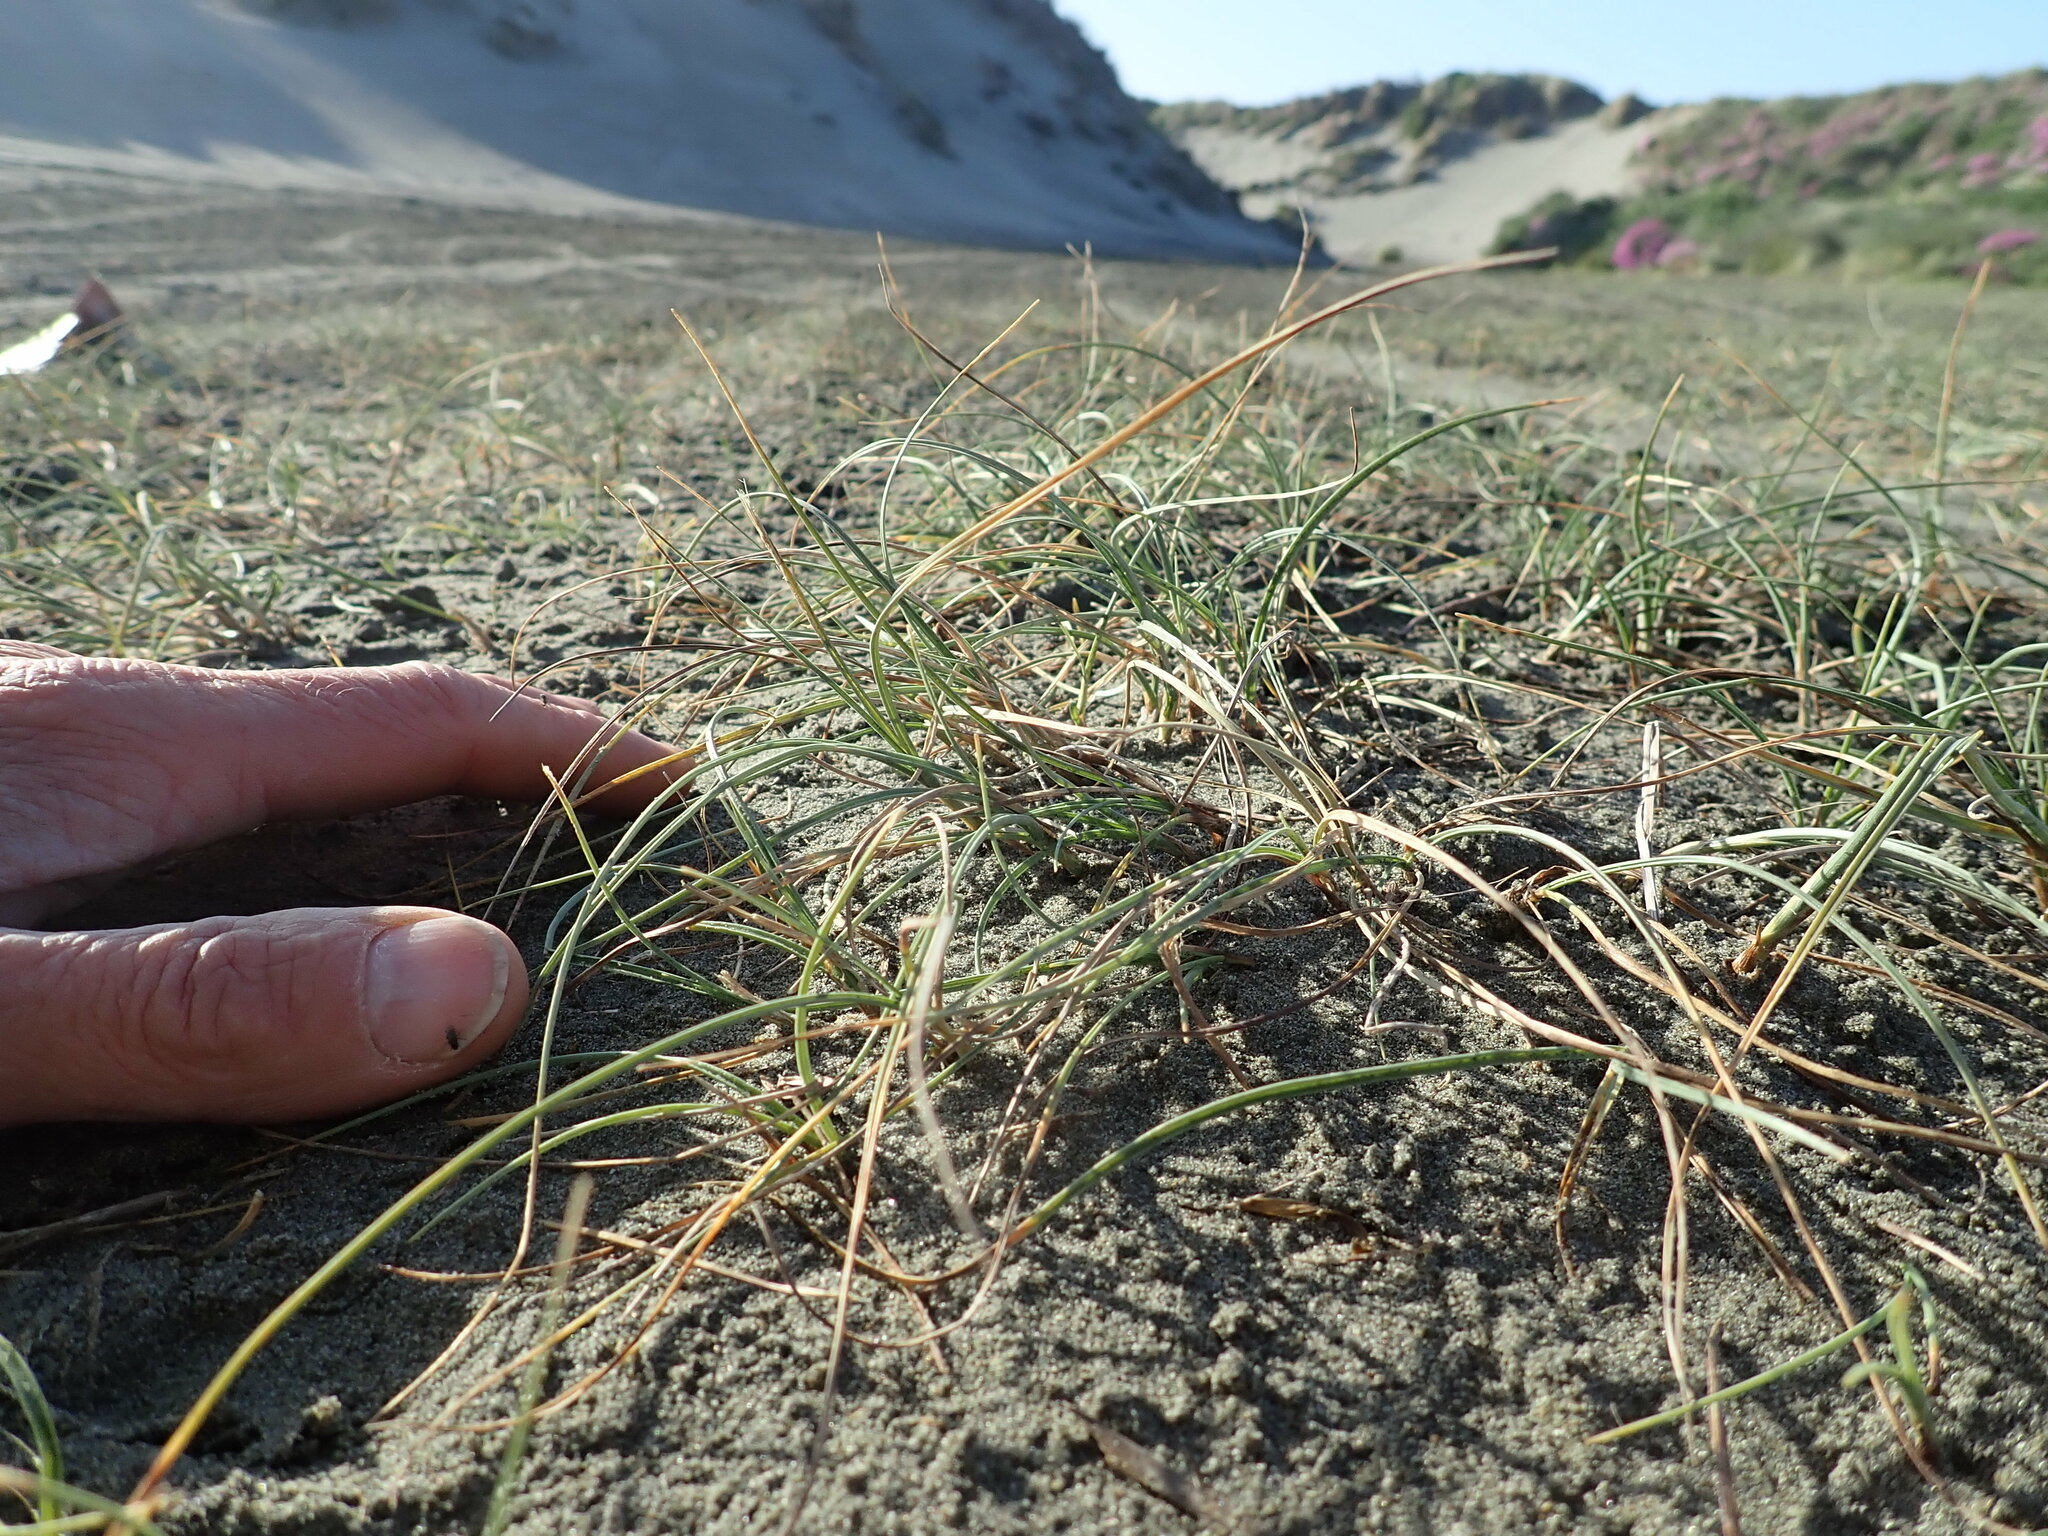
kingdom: Plantae
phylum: Tracheophyta
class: Liliopsida
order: Poales
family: Cyperaceae
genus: Carex
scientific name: Carex pumila
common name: Dwarf sedge
